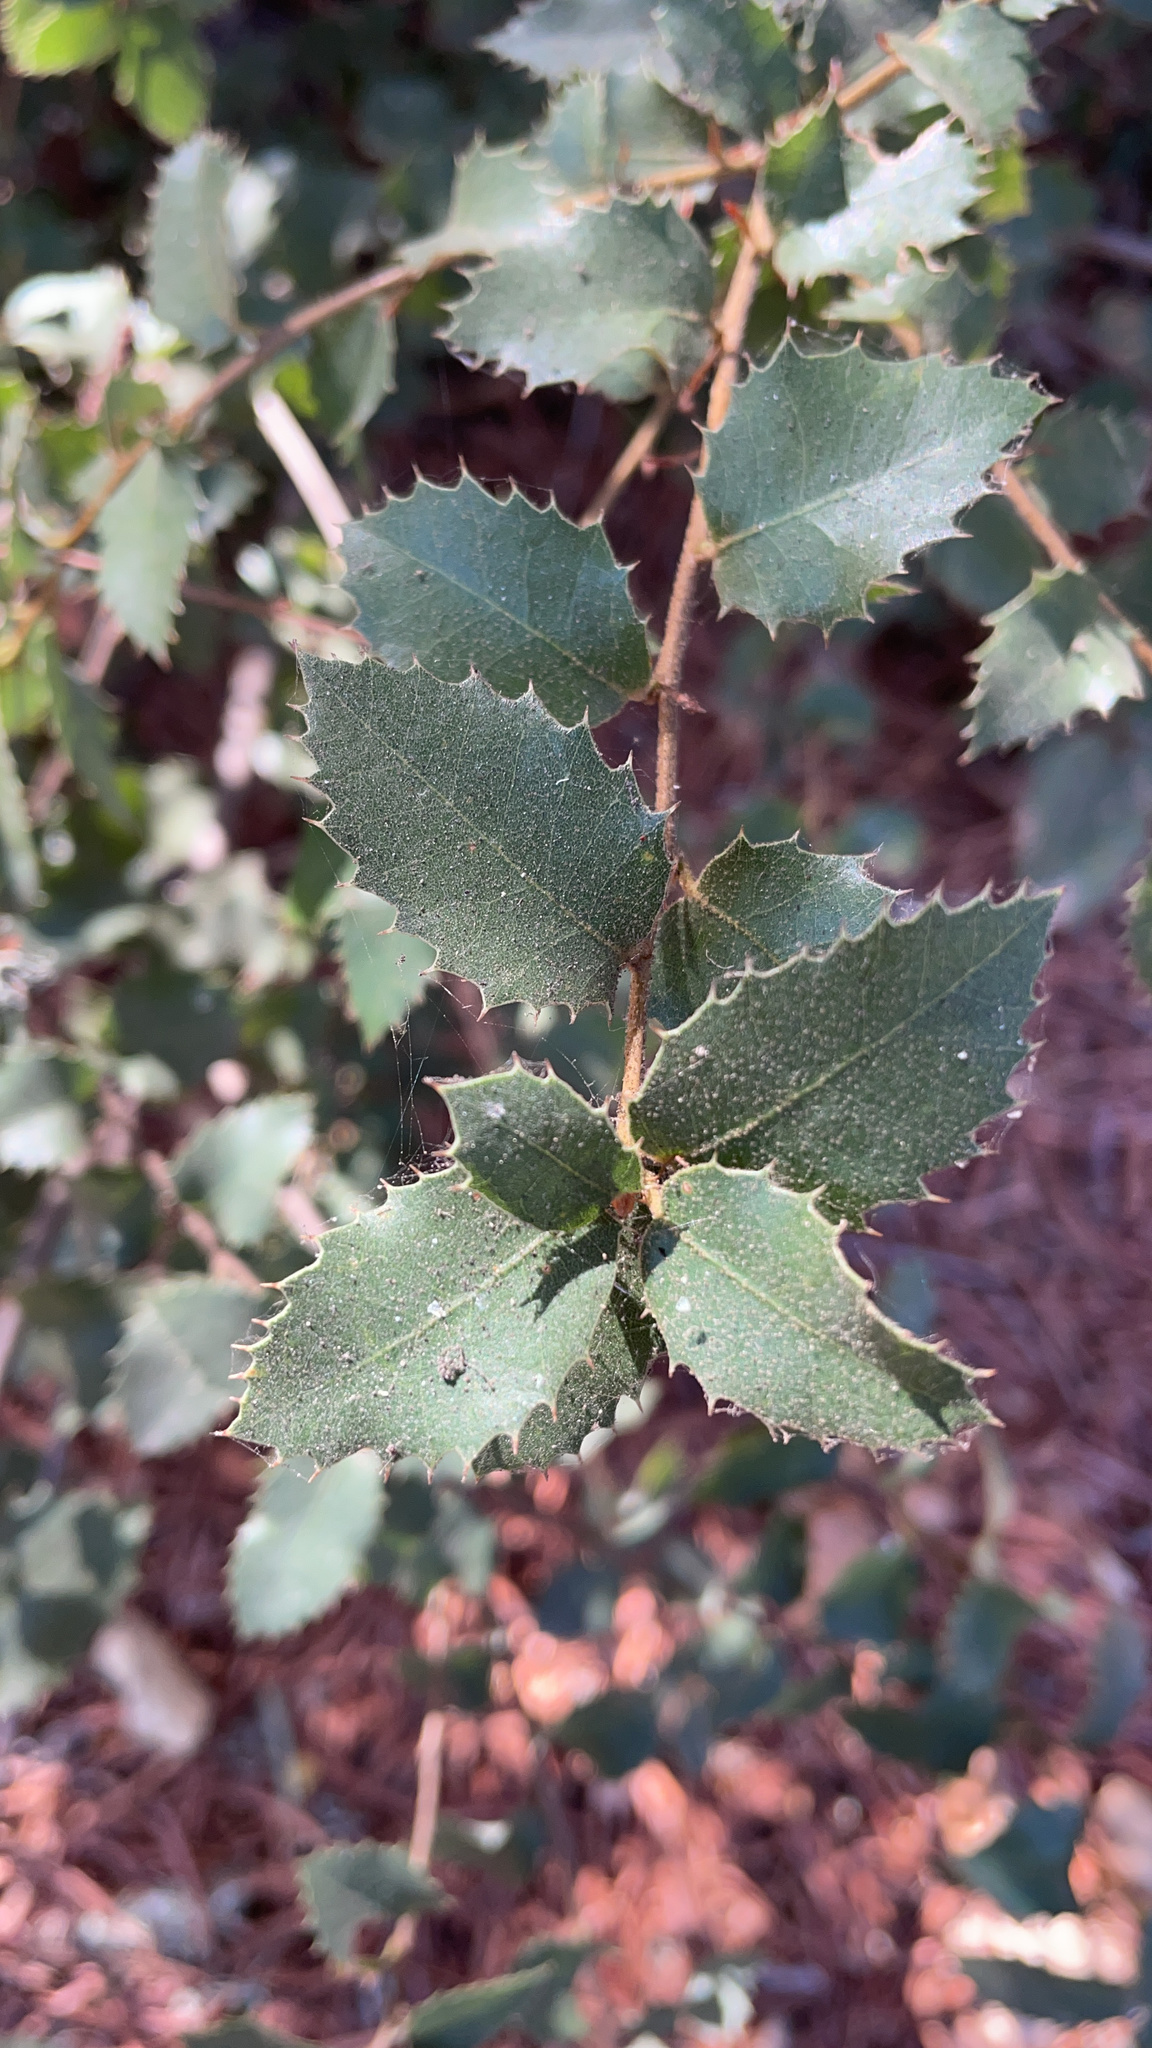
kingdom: Plantae
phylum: Tracheophyta
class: Magnoliopsida
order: Fagales
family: Fagaceae
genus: Quercus
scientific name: Quercus chrysolepis
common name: Canyon live oak
